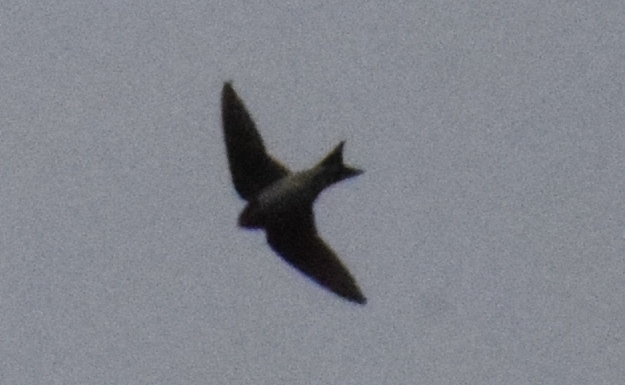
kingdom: Animalia
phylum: Chordata
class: Aves
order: Passeriformes
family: Hirundinidae
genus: Ptyonoprogne
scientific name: Ptyonoprogne rupestris
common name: Eurasian crag martin
